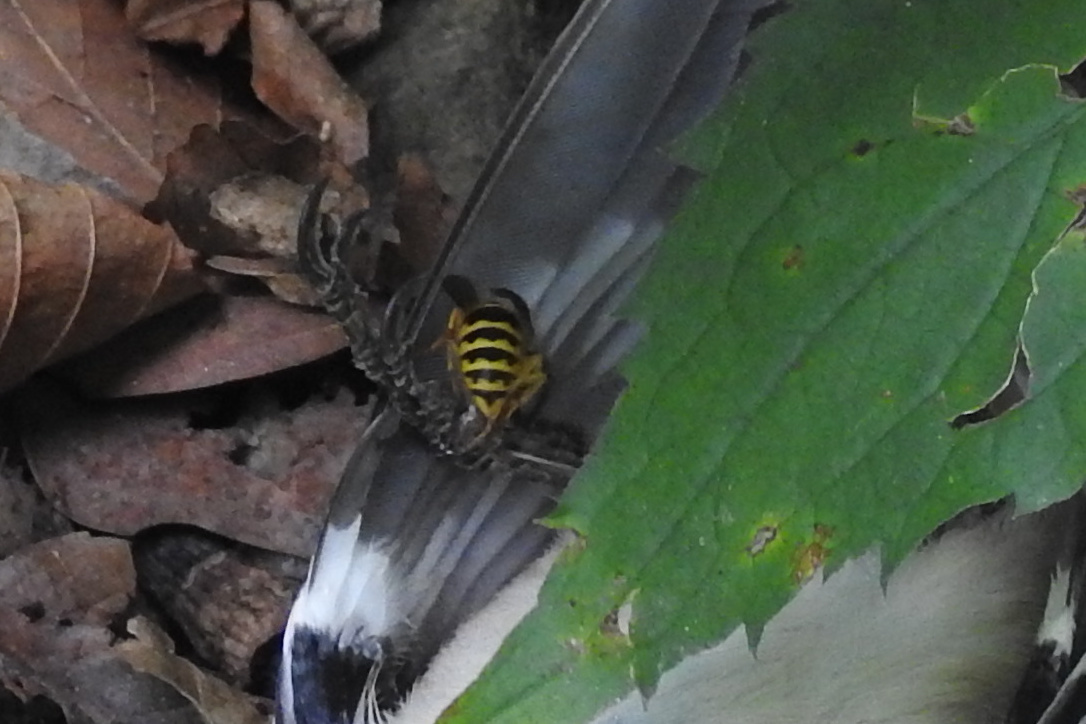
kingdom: Animalia
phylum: Arthropoda
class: Insecta
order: Hymenoptera
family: Vespidae
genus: Vespula
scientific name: Vespula
